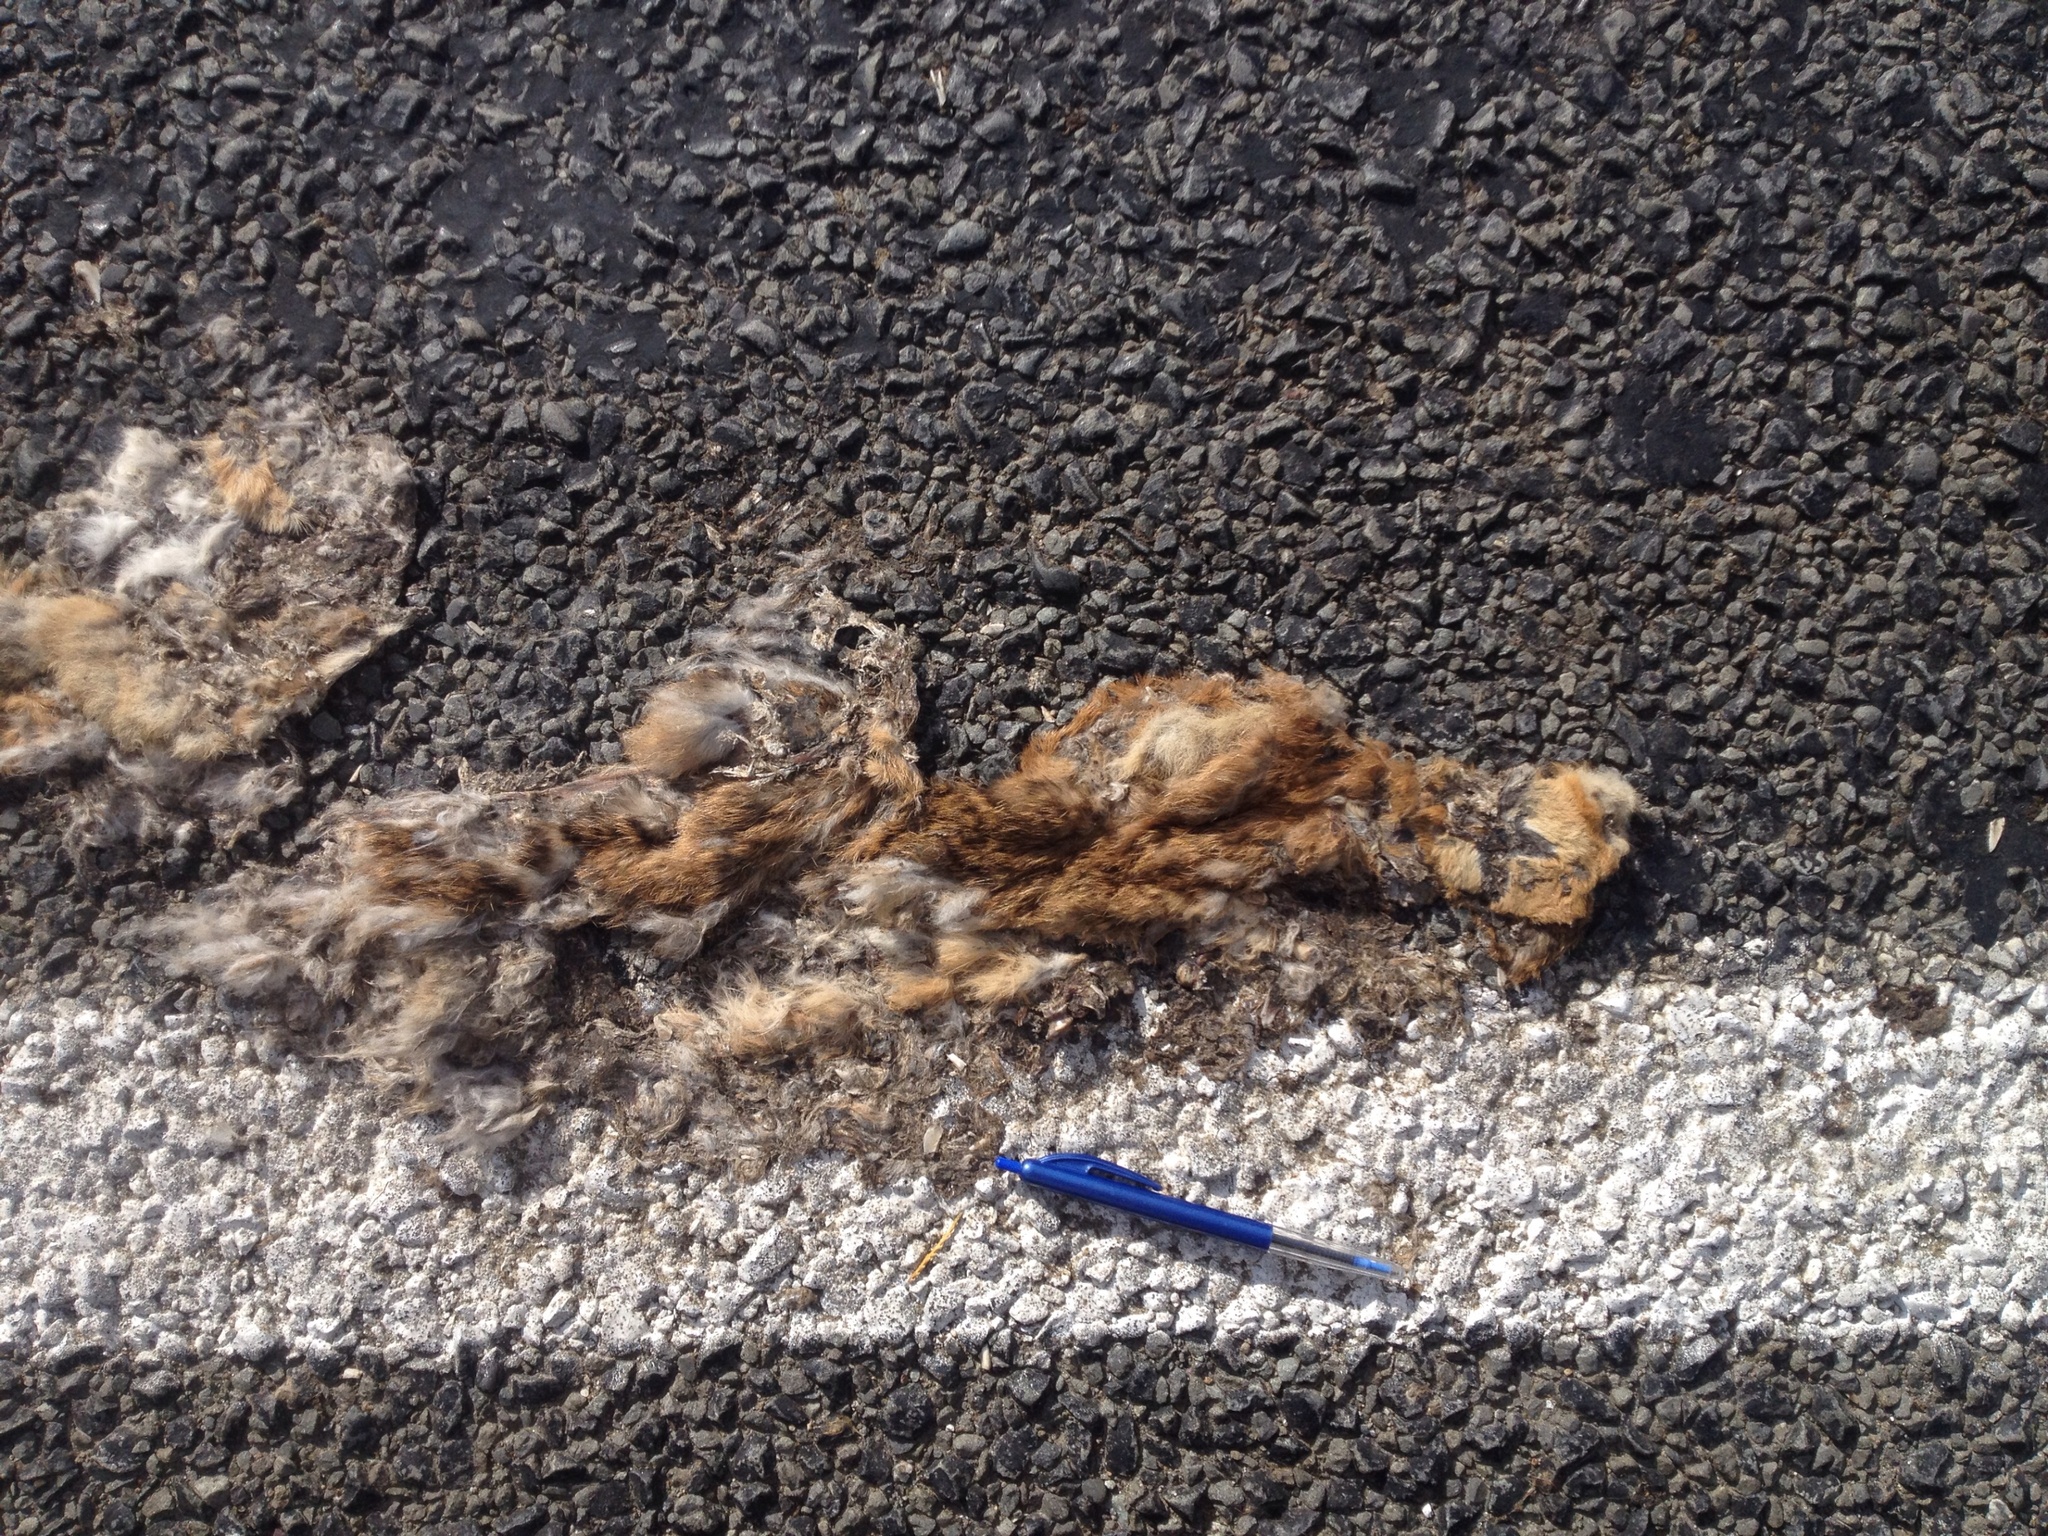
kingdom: Animalia
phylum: Chordata
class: Mammalia
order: Carnivora
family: Felidae
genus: Felis
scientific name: Felis catus
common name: Domestic cat
